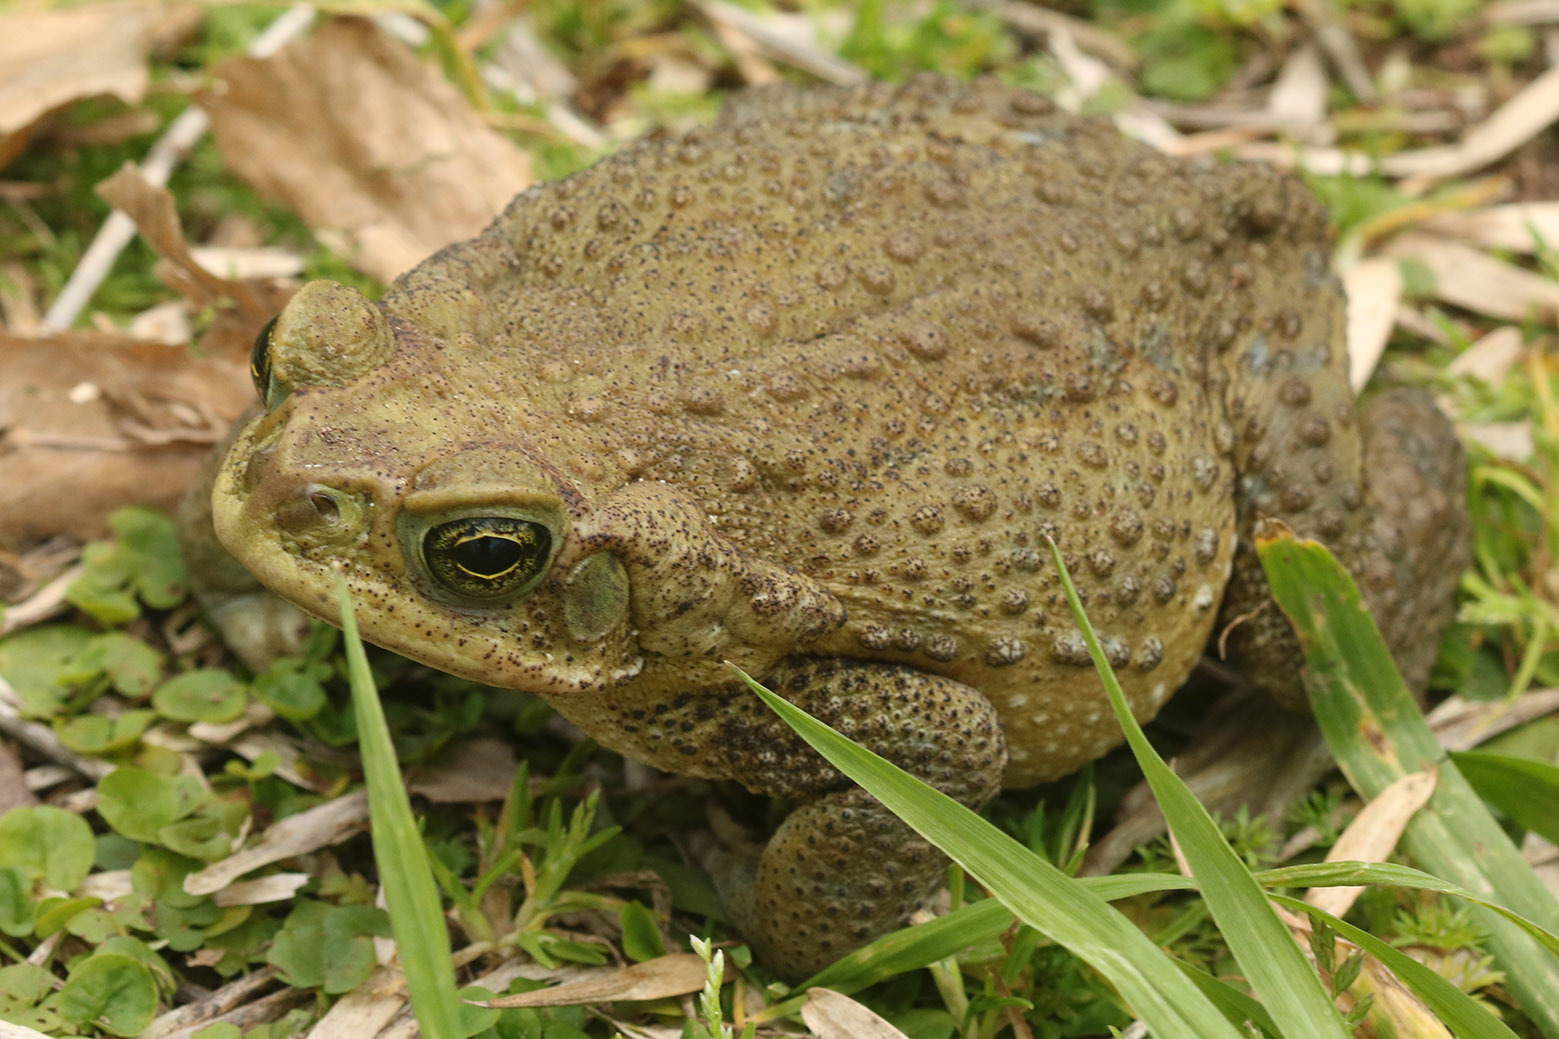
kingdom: Animalia
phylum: Chordata
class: Amphibia
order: Anura
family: Bufonidae
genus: Rhinella
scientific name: Rhinella arenarum
